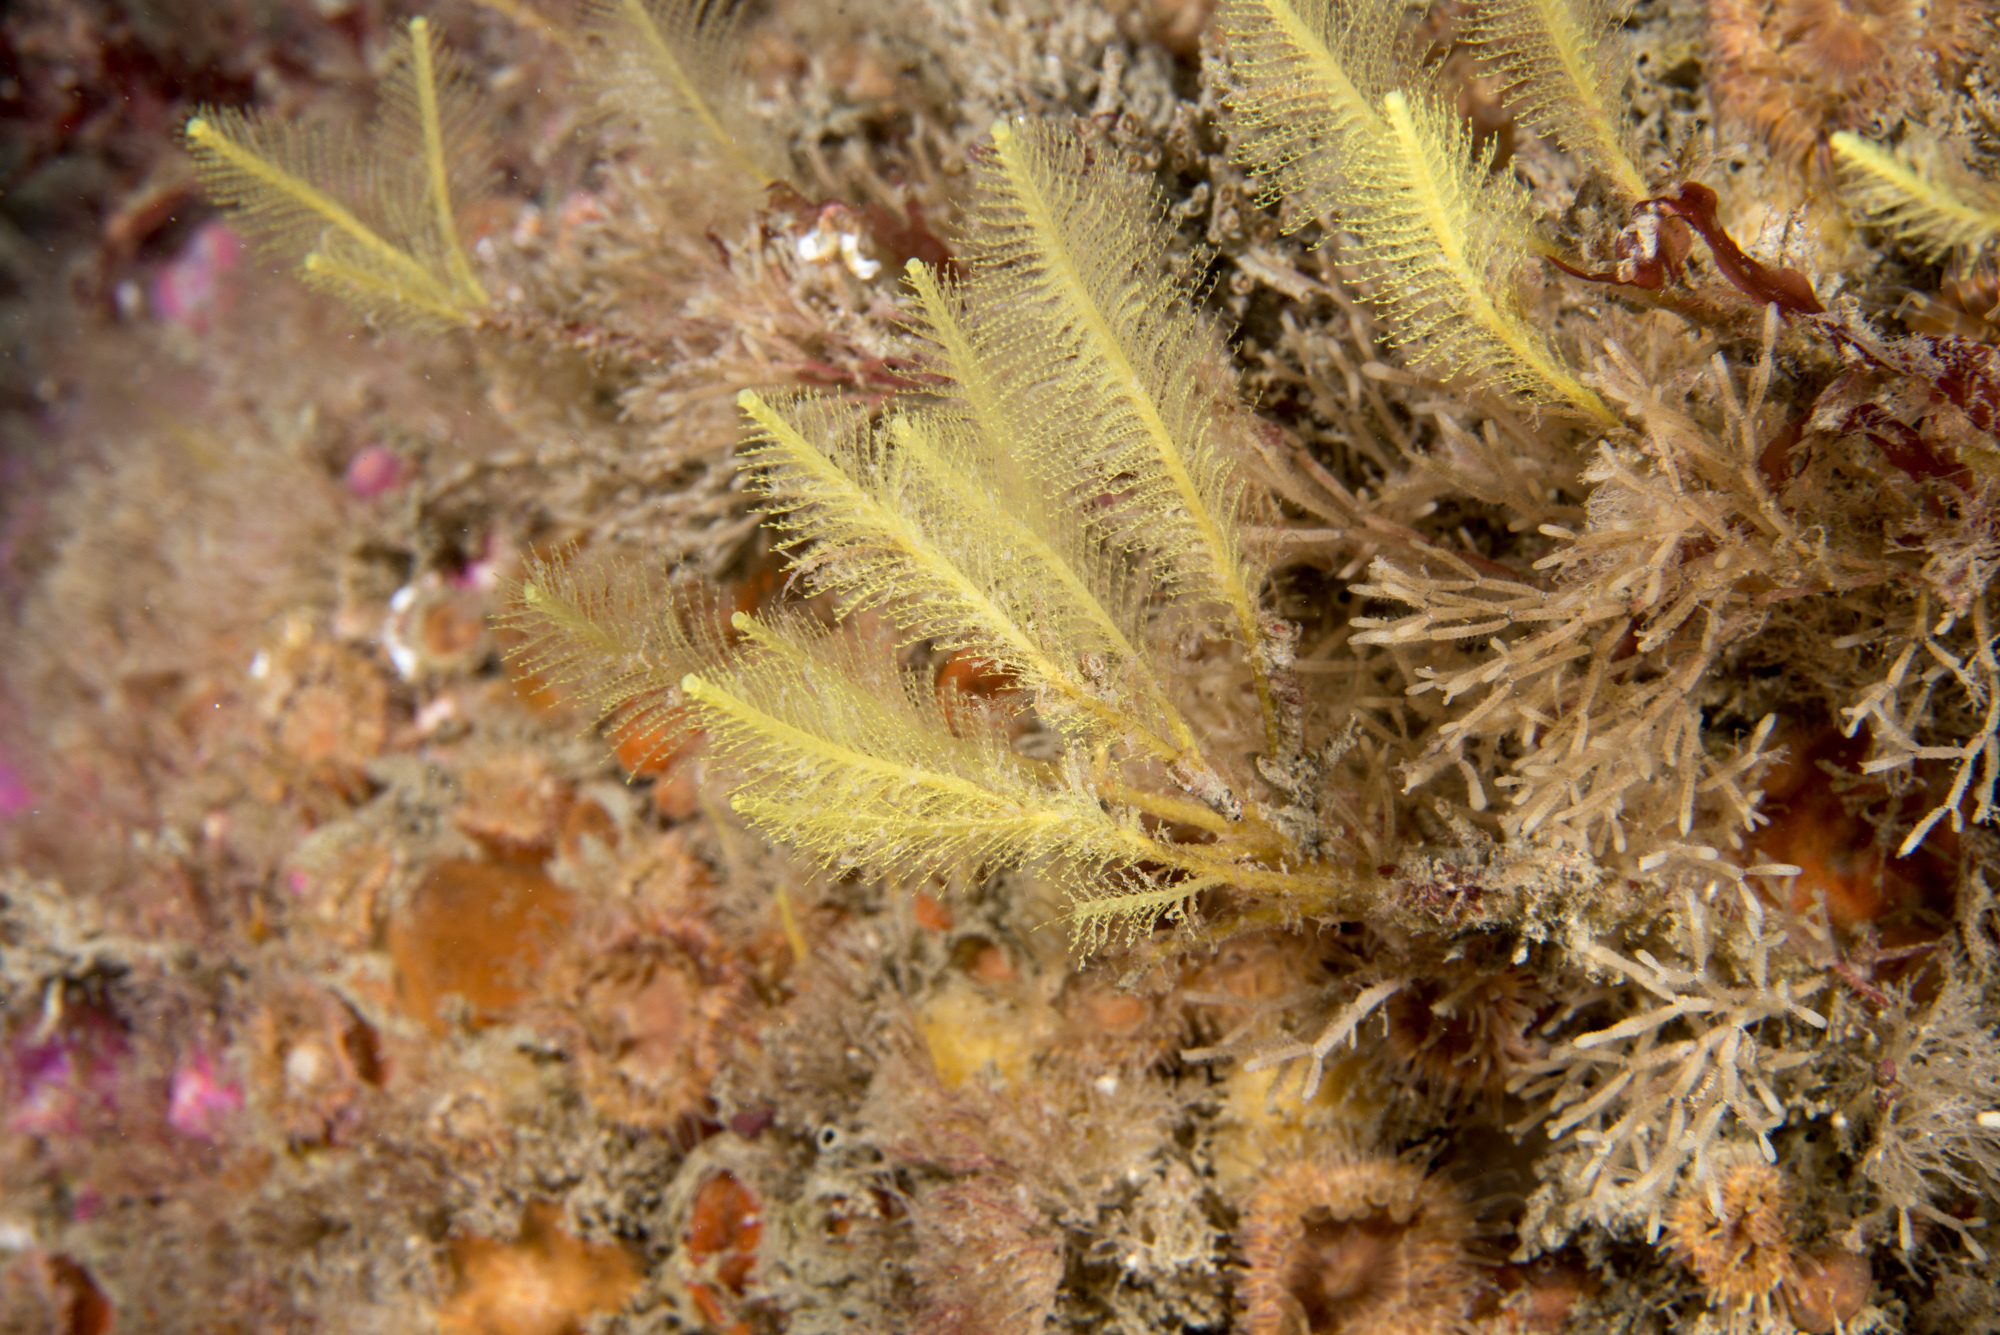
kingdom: Animalia
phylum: Cnidaria
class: Hydrozoa
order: Leptothecata
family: Plumulariidae
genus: Nemertesia
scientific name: Nemertesia ramosa
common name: Hydroid
